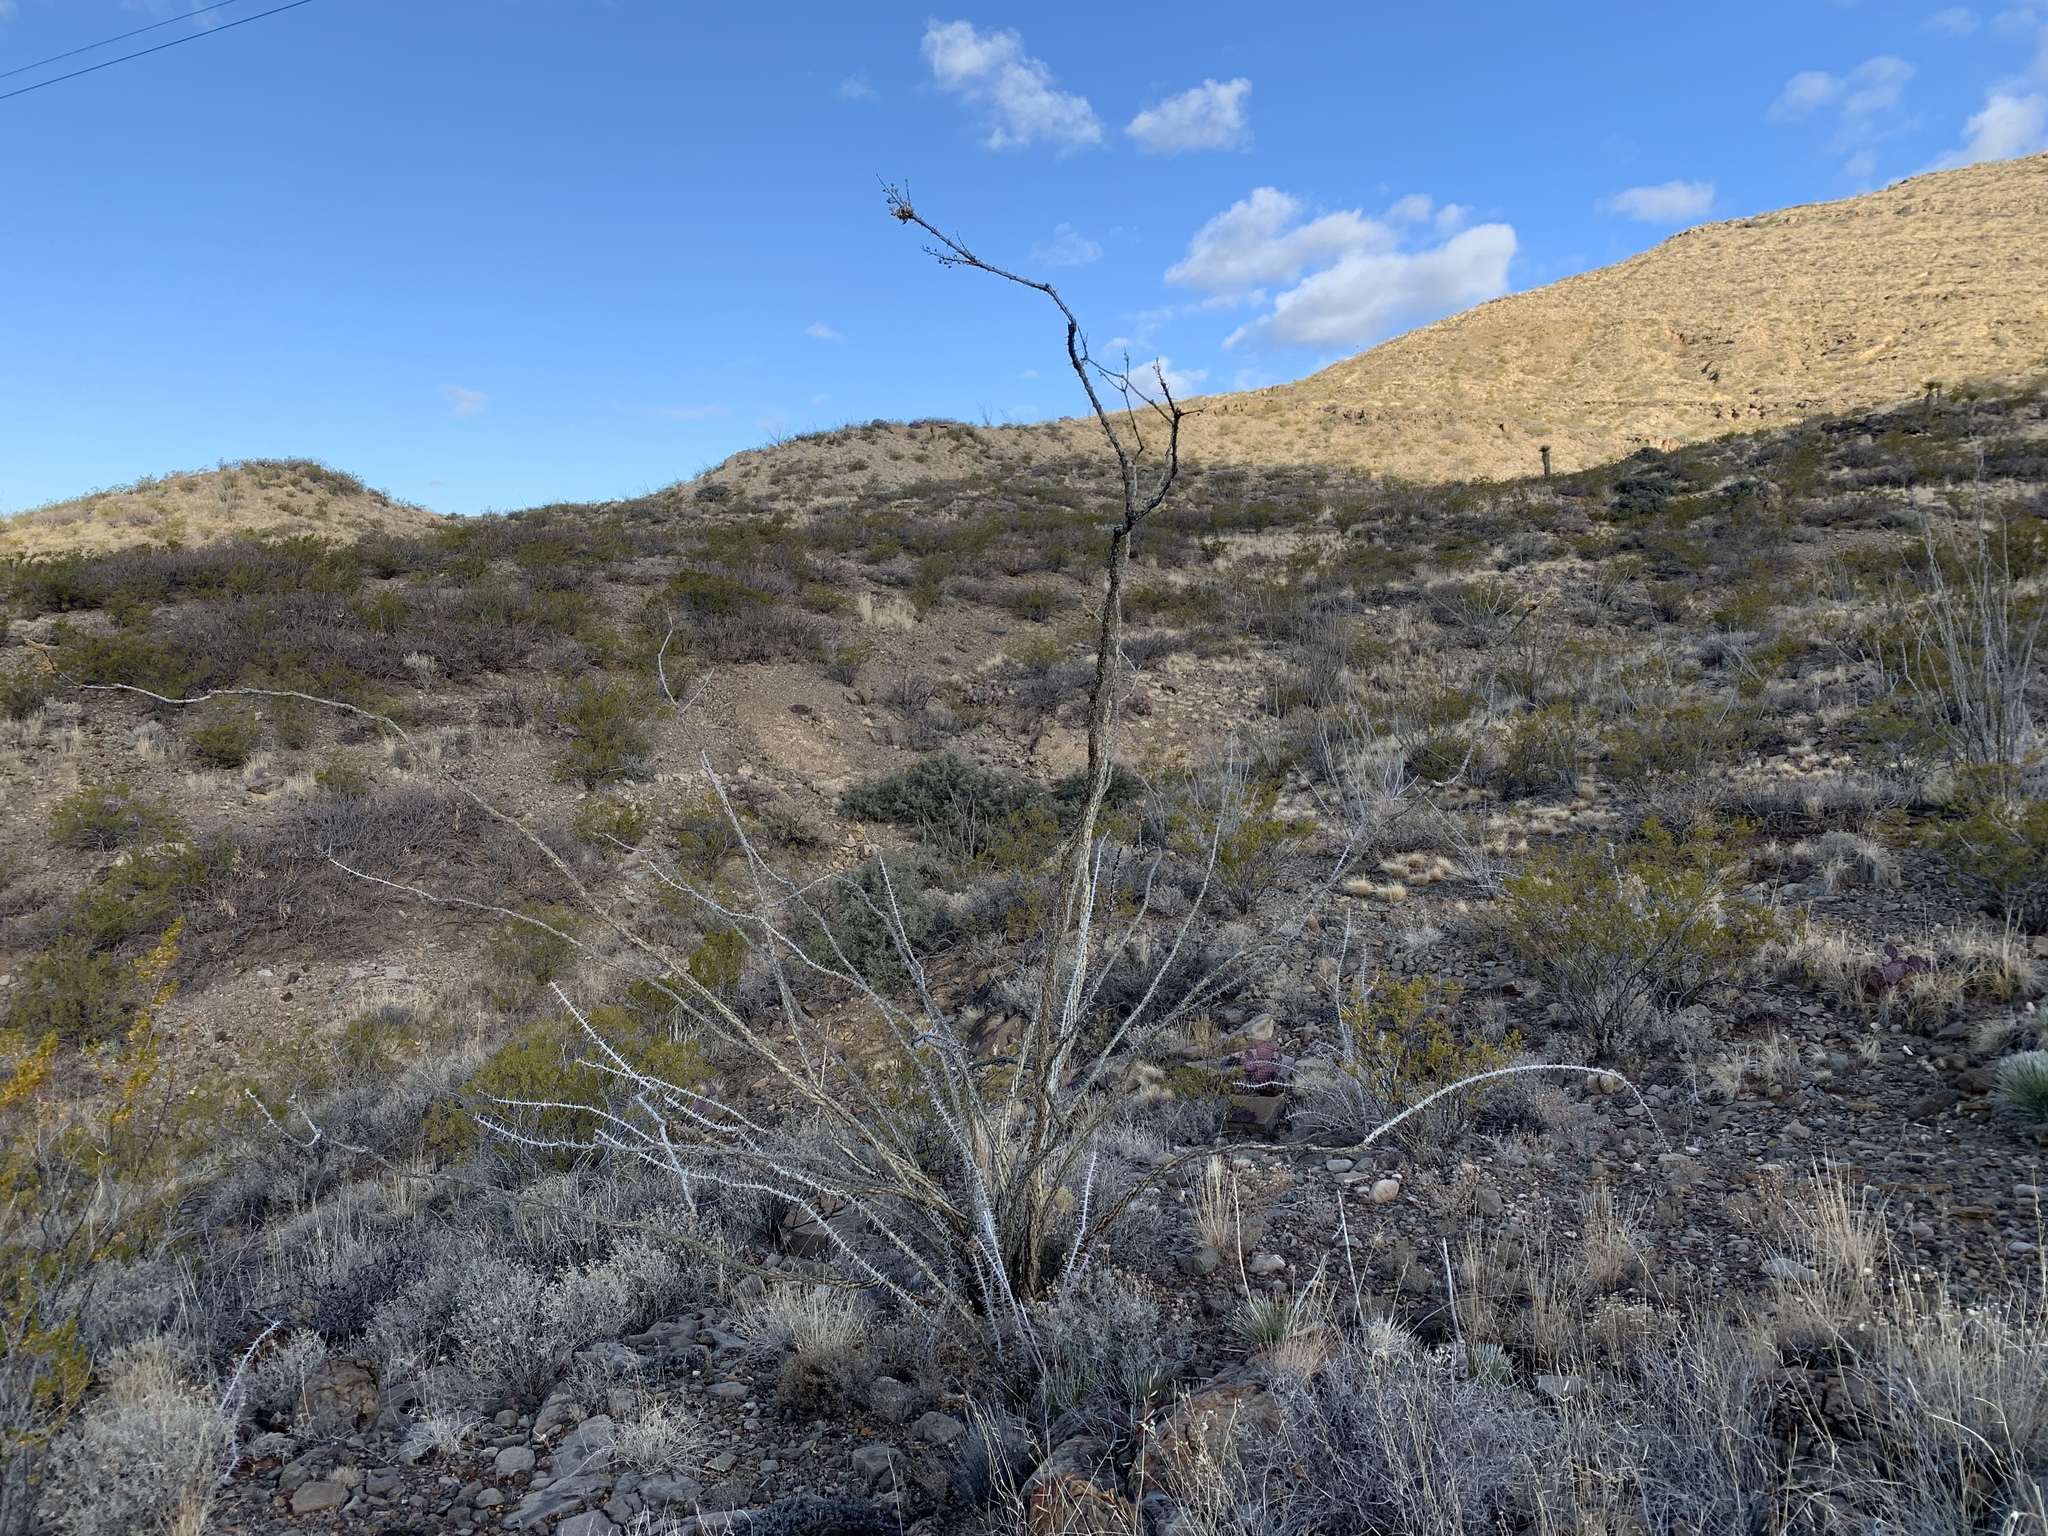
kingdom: Plantae
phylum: Tracheophyta
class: Magnoliopsida
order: Ericales
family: Fouquieriaceae
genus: Fouquieria
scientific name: Fouquieria splendens
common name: Vine-cactus
